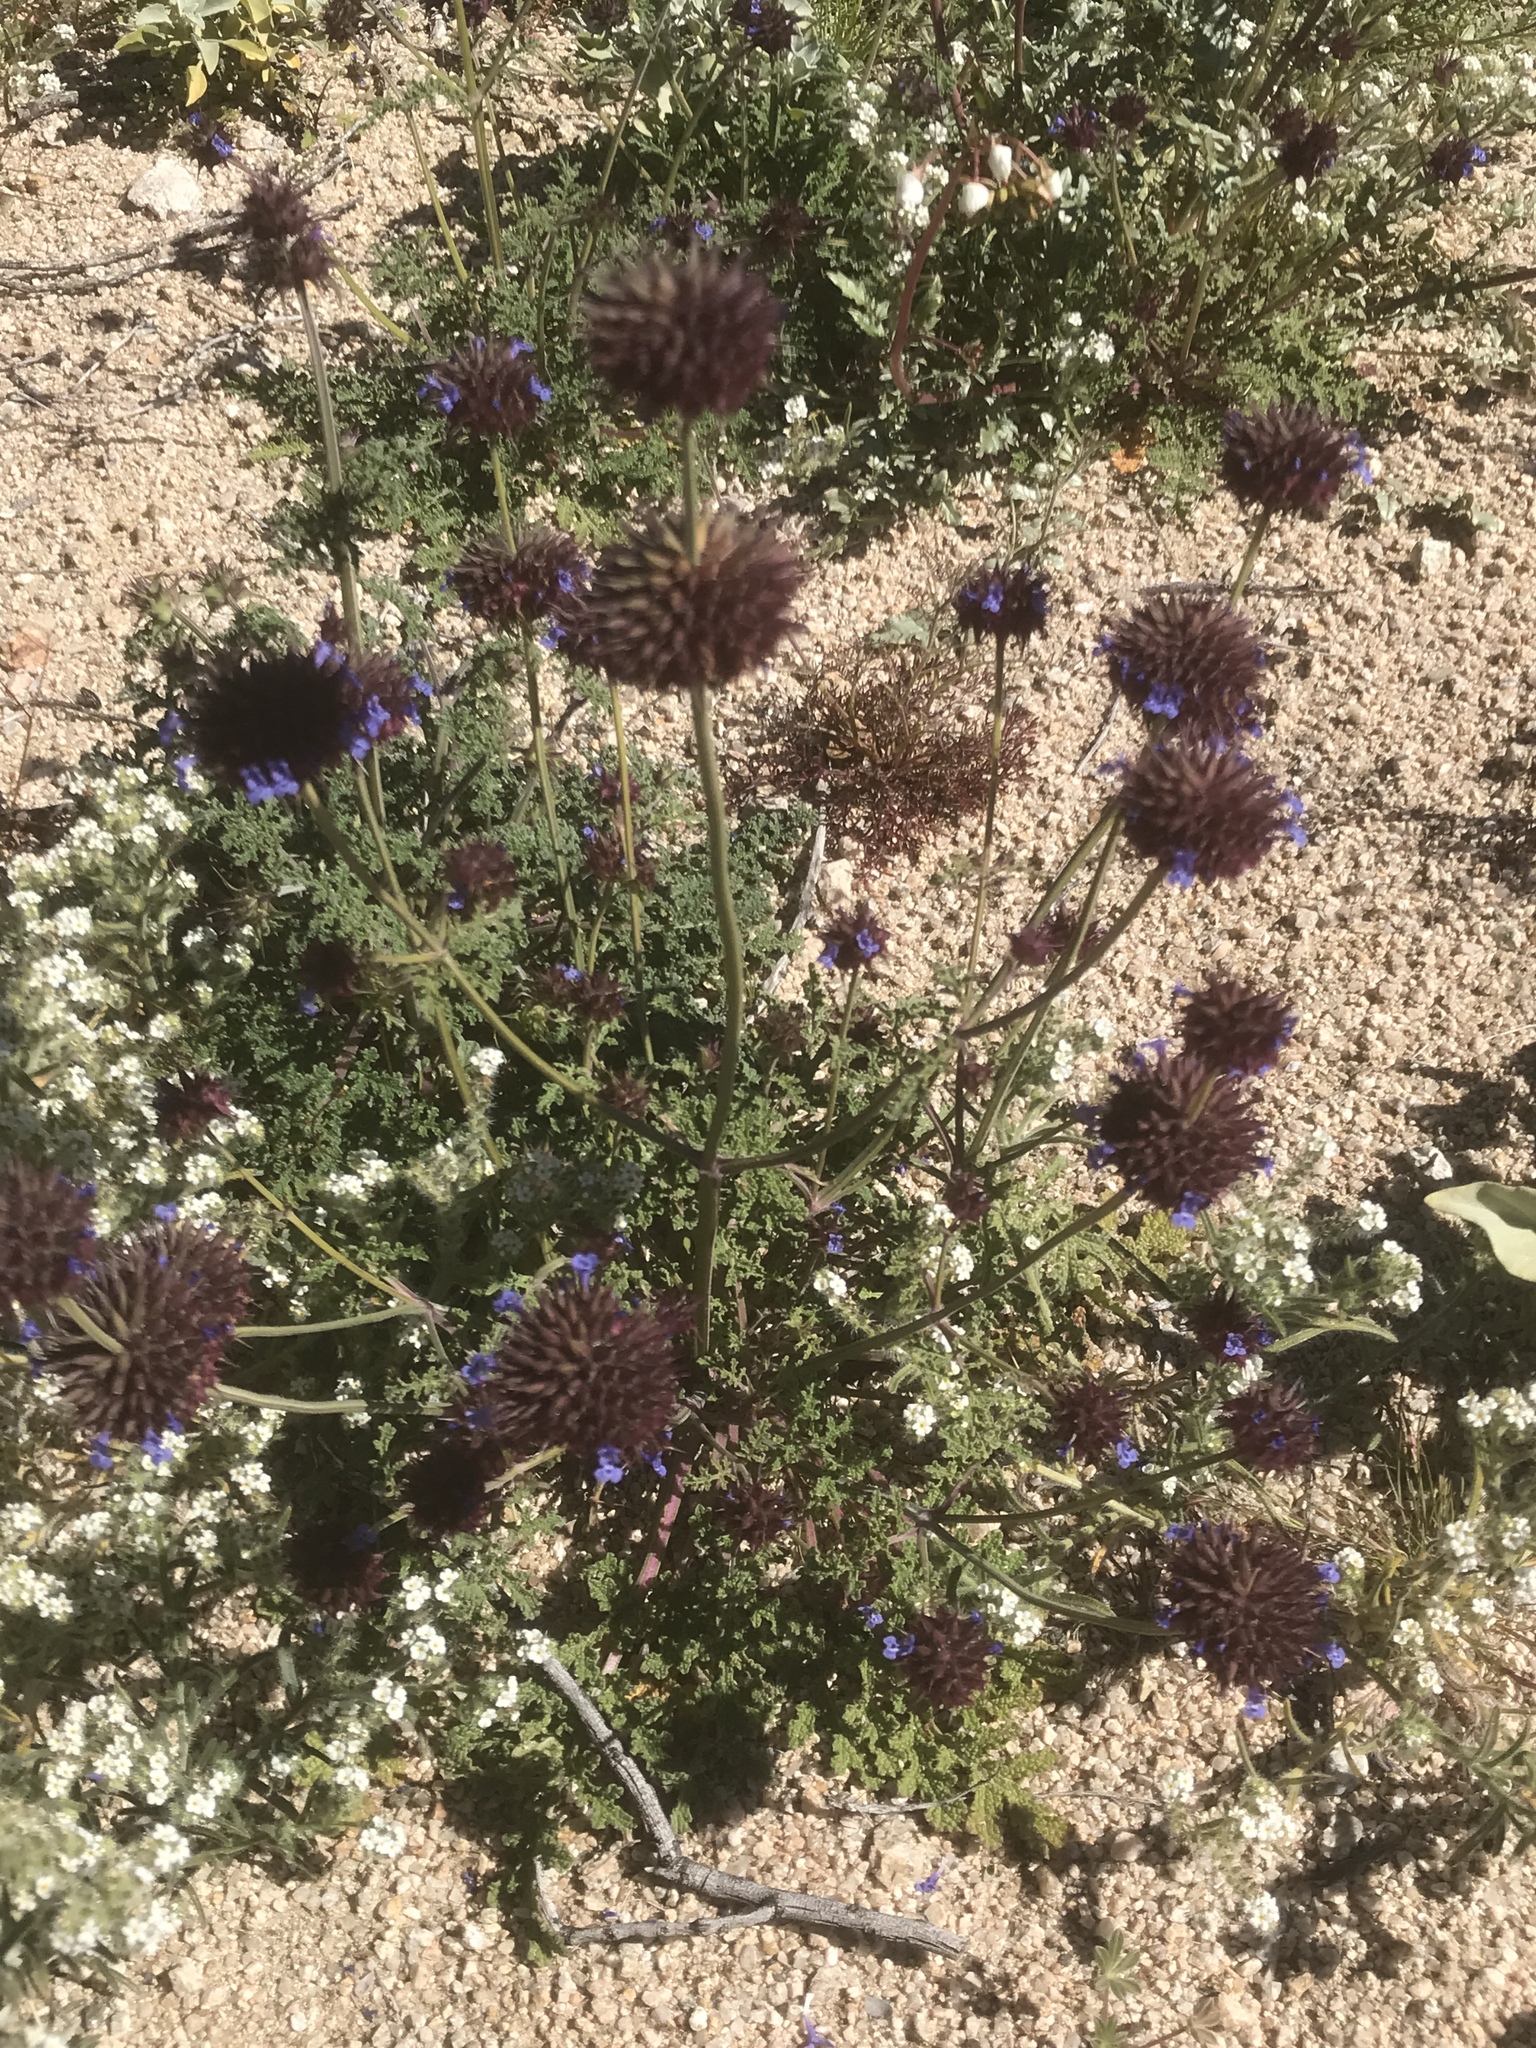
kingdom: Plantae
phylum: Tracheophyta
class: Magnoliopsida
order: Lamiales
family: Lamiaceae
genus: Salvia
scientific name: Salvia columbariae
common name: Chia
